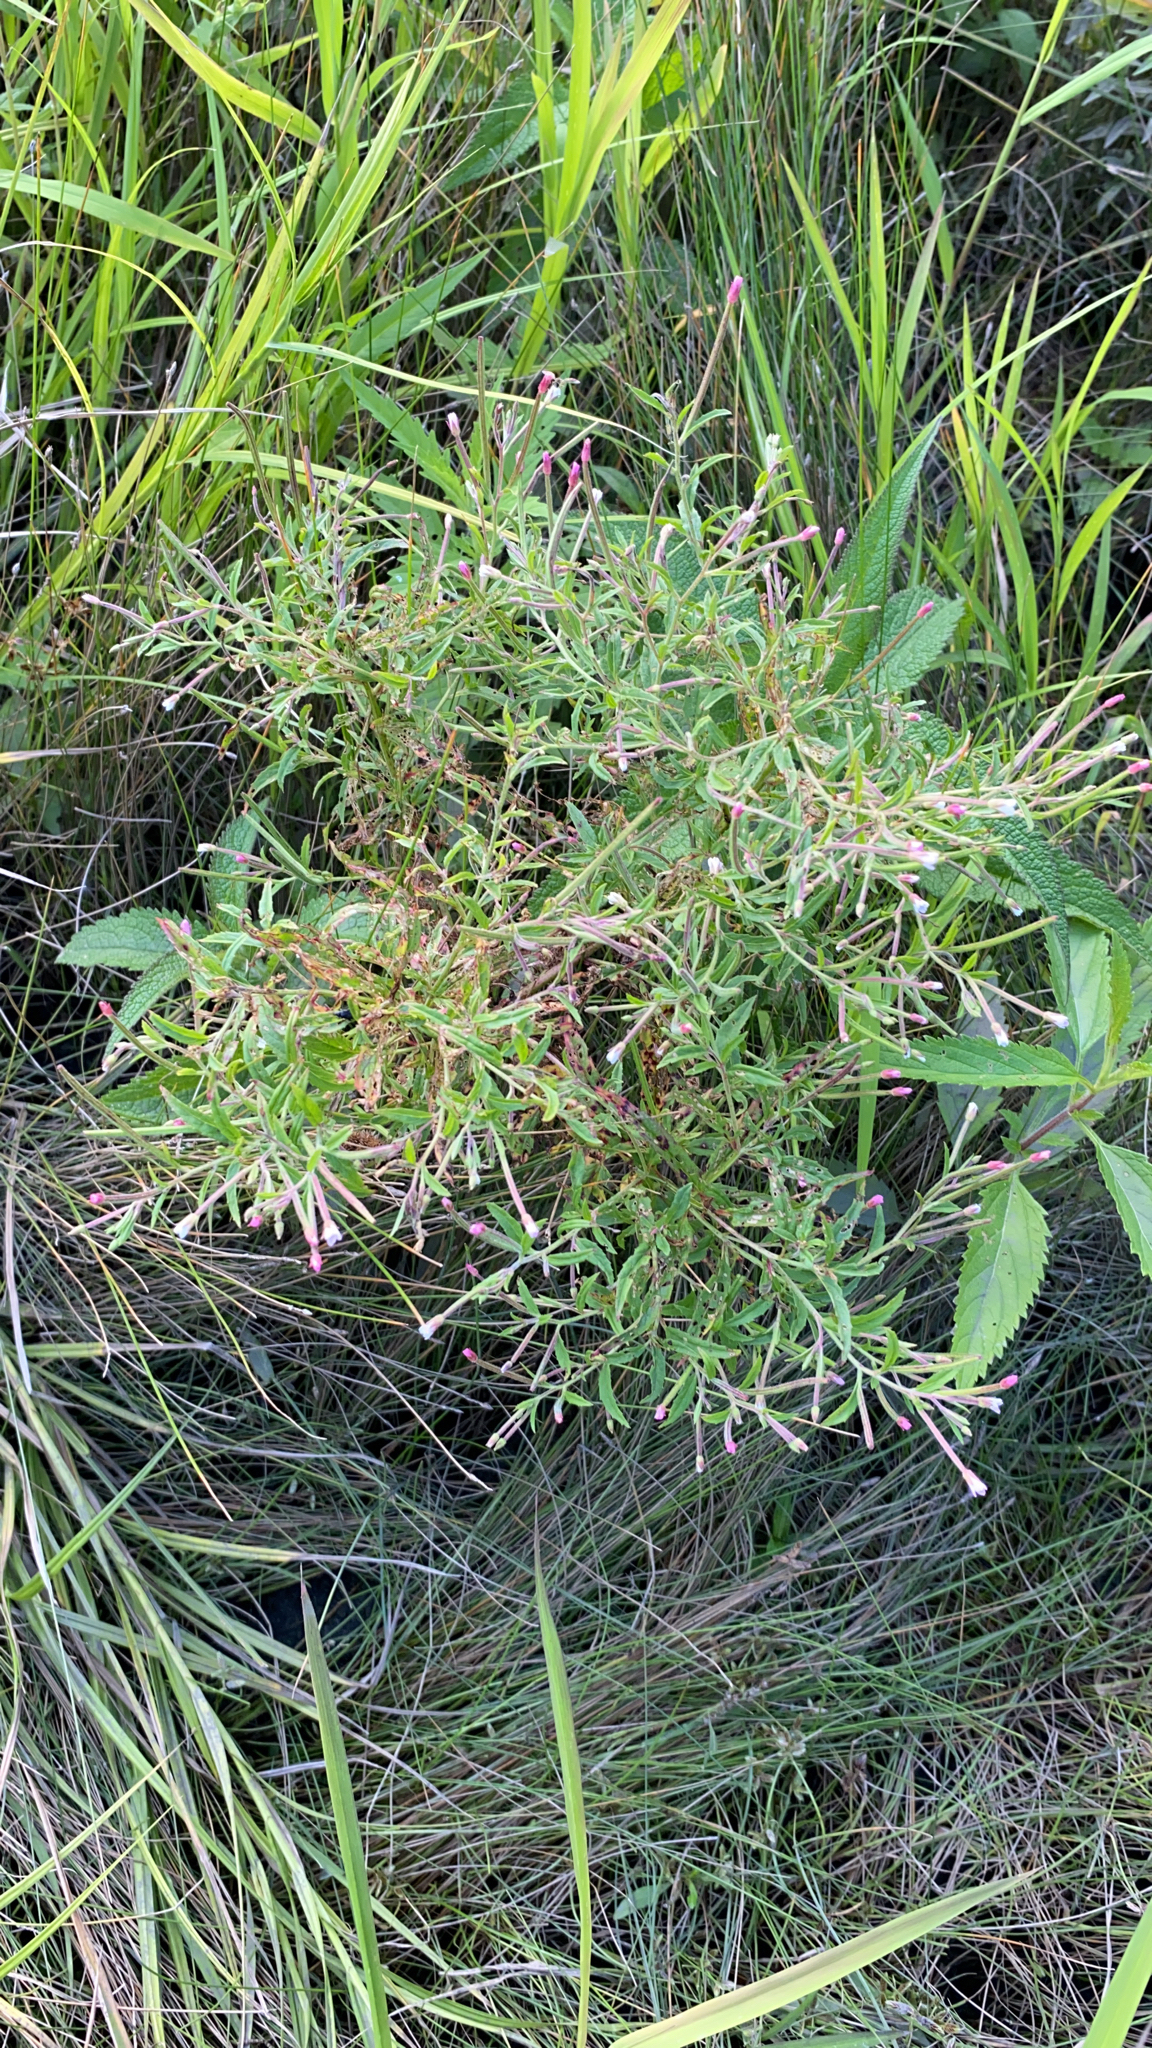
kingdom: Plantae
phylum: Tracheophyta
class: Magnoliopsida
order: Myrtales
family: Onagraceae
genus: Epilobium
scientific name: Epilobium coloratum
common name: Bronze willowherb
